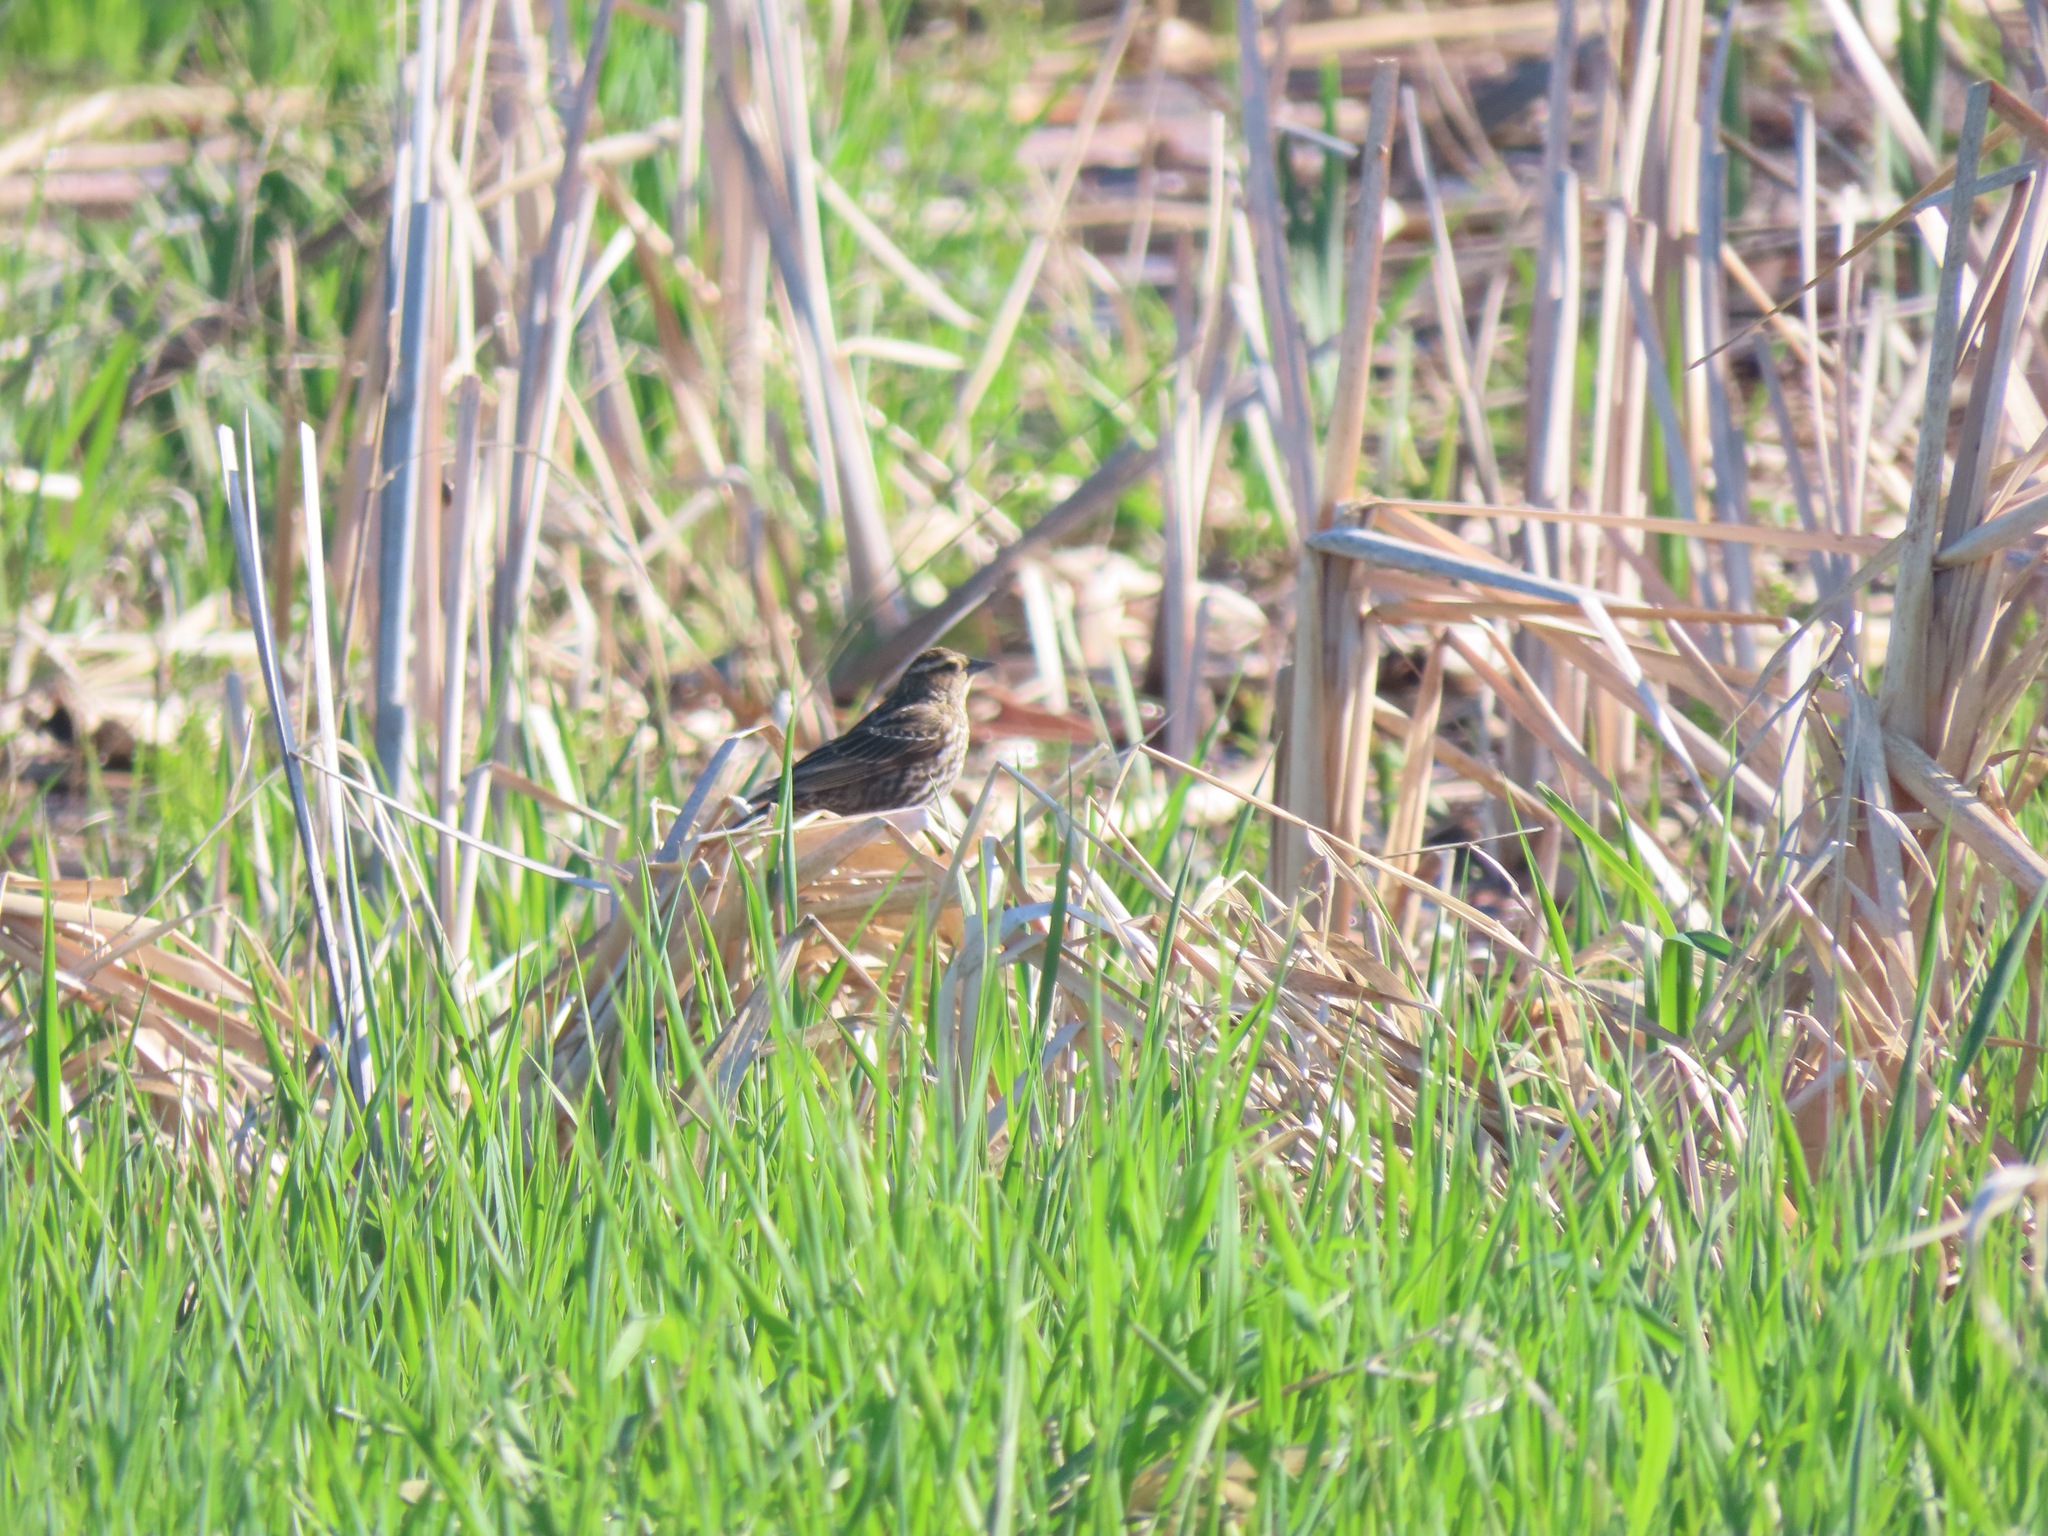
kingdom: Animalia
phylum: Chordata
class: Aves
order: Passeriformes
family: Icteridae
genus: Agelaius
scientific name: Agelaius phoeniceus
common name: Red-winged blackbird
